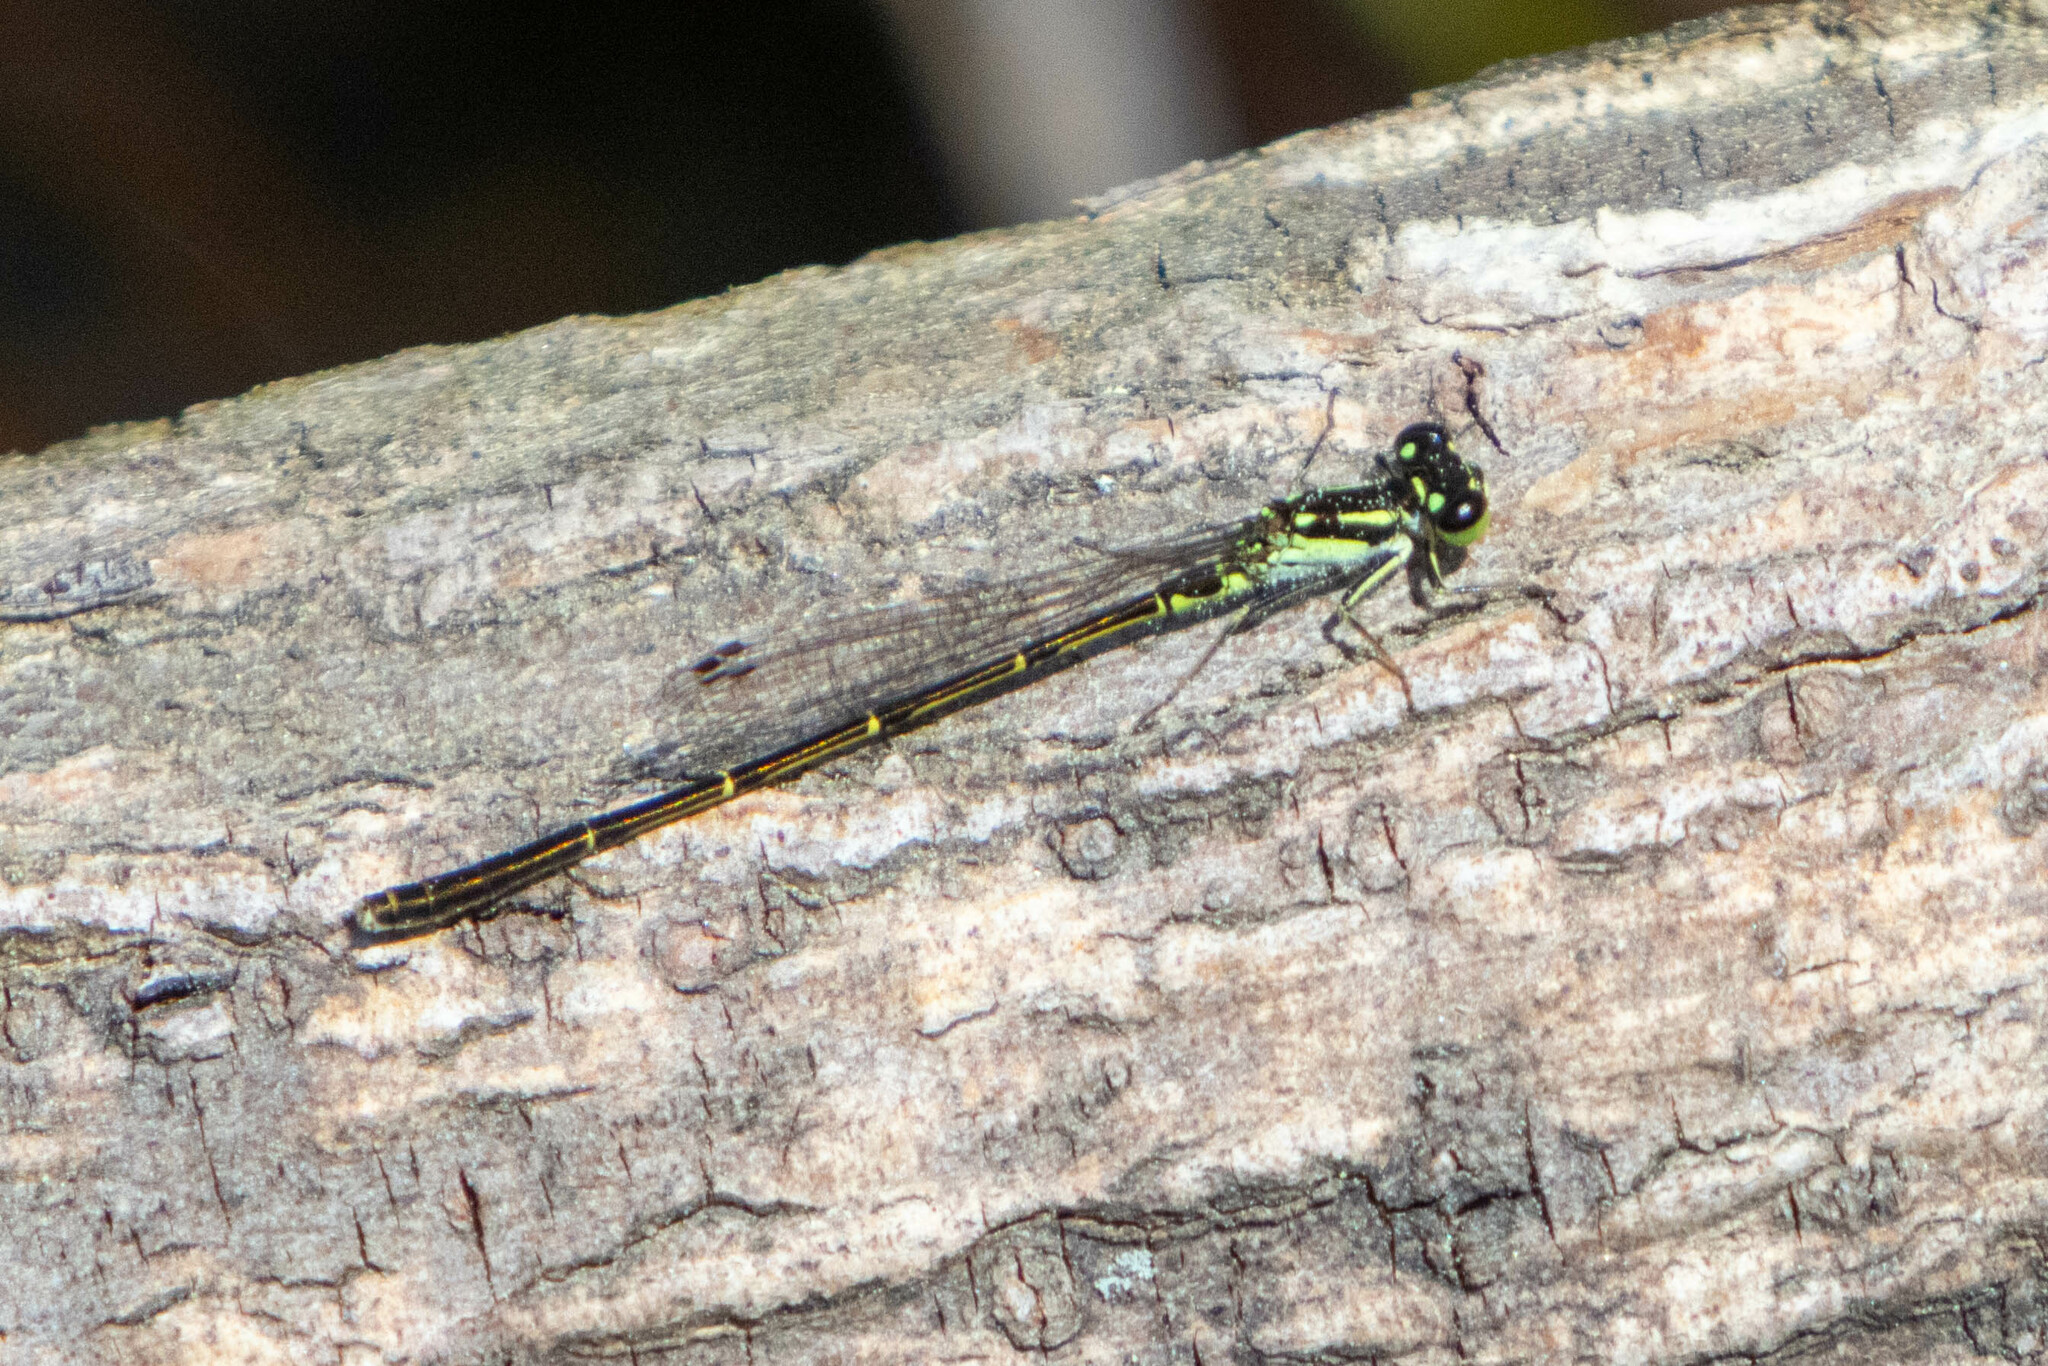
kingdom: Animalia
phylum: Arthropoda
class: Insecta
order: Odonata
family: Coenagrionidae
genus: Ischnura
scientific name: Ischnura posita
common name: Fragile forktail
